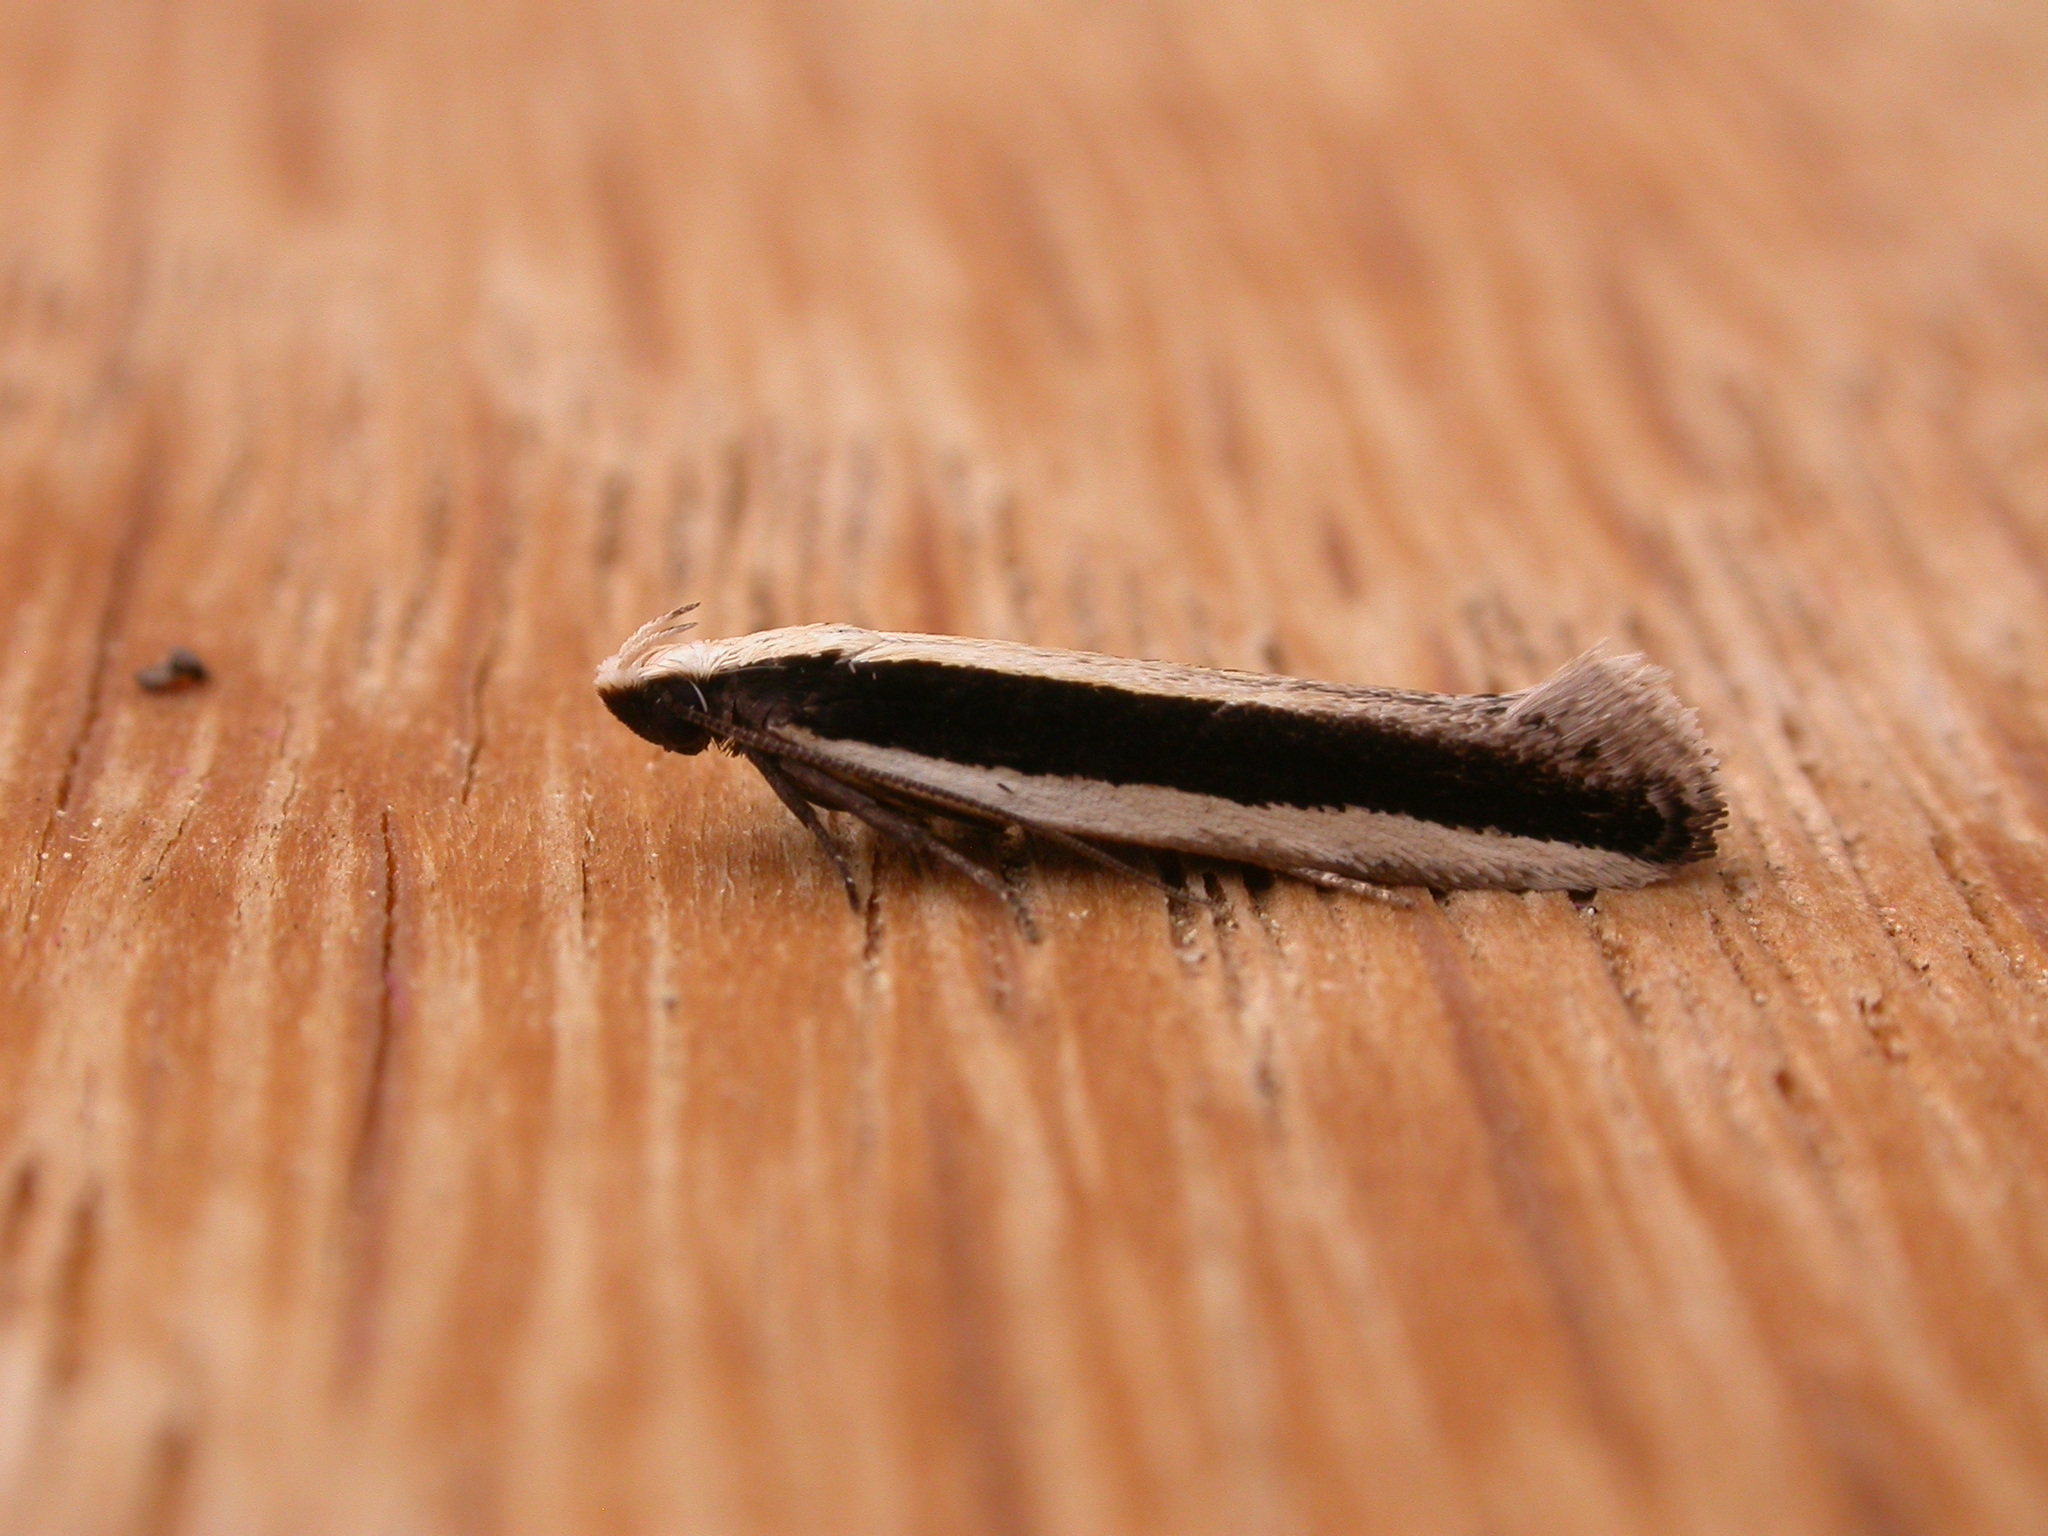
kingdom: Animalia
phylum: Arthropoda
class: Insecta
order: Lepidoptera
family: Gelechiidae
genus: Macrenches
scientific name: Macrenches clerica
